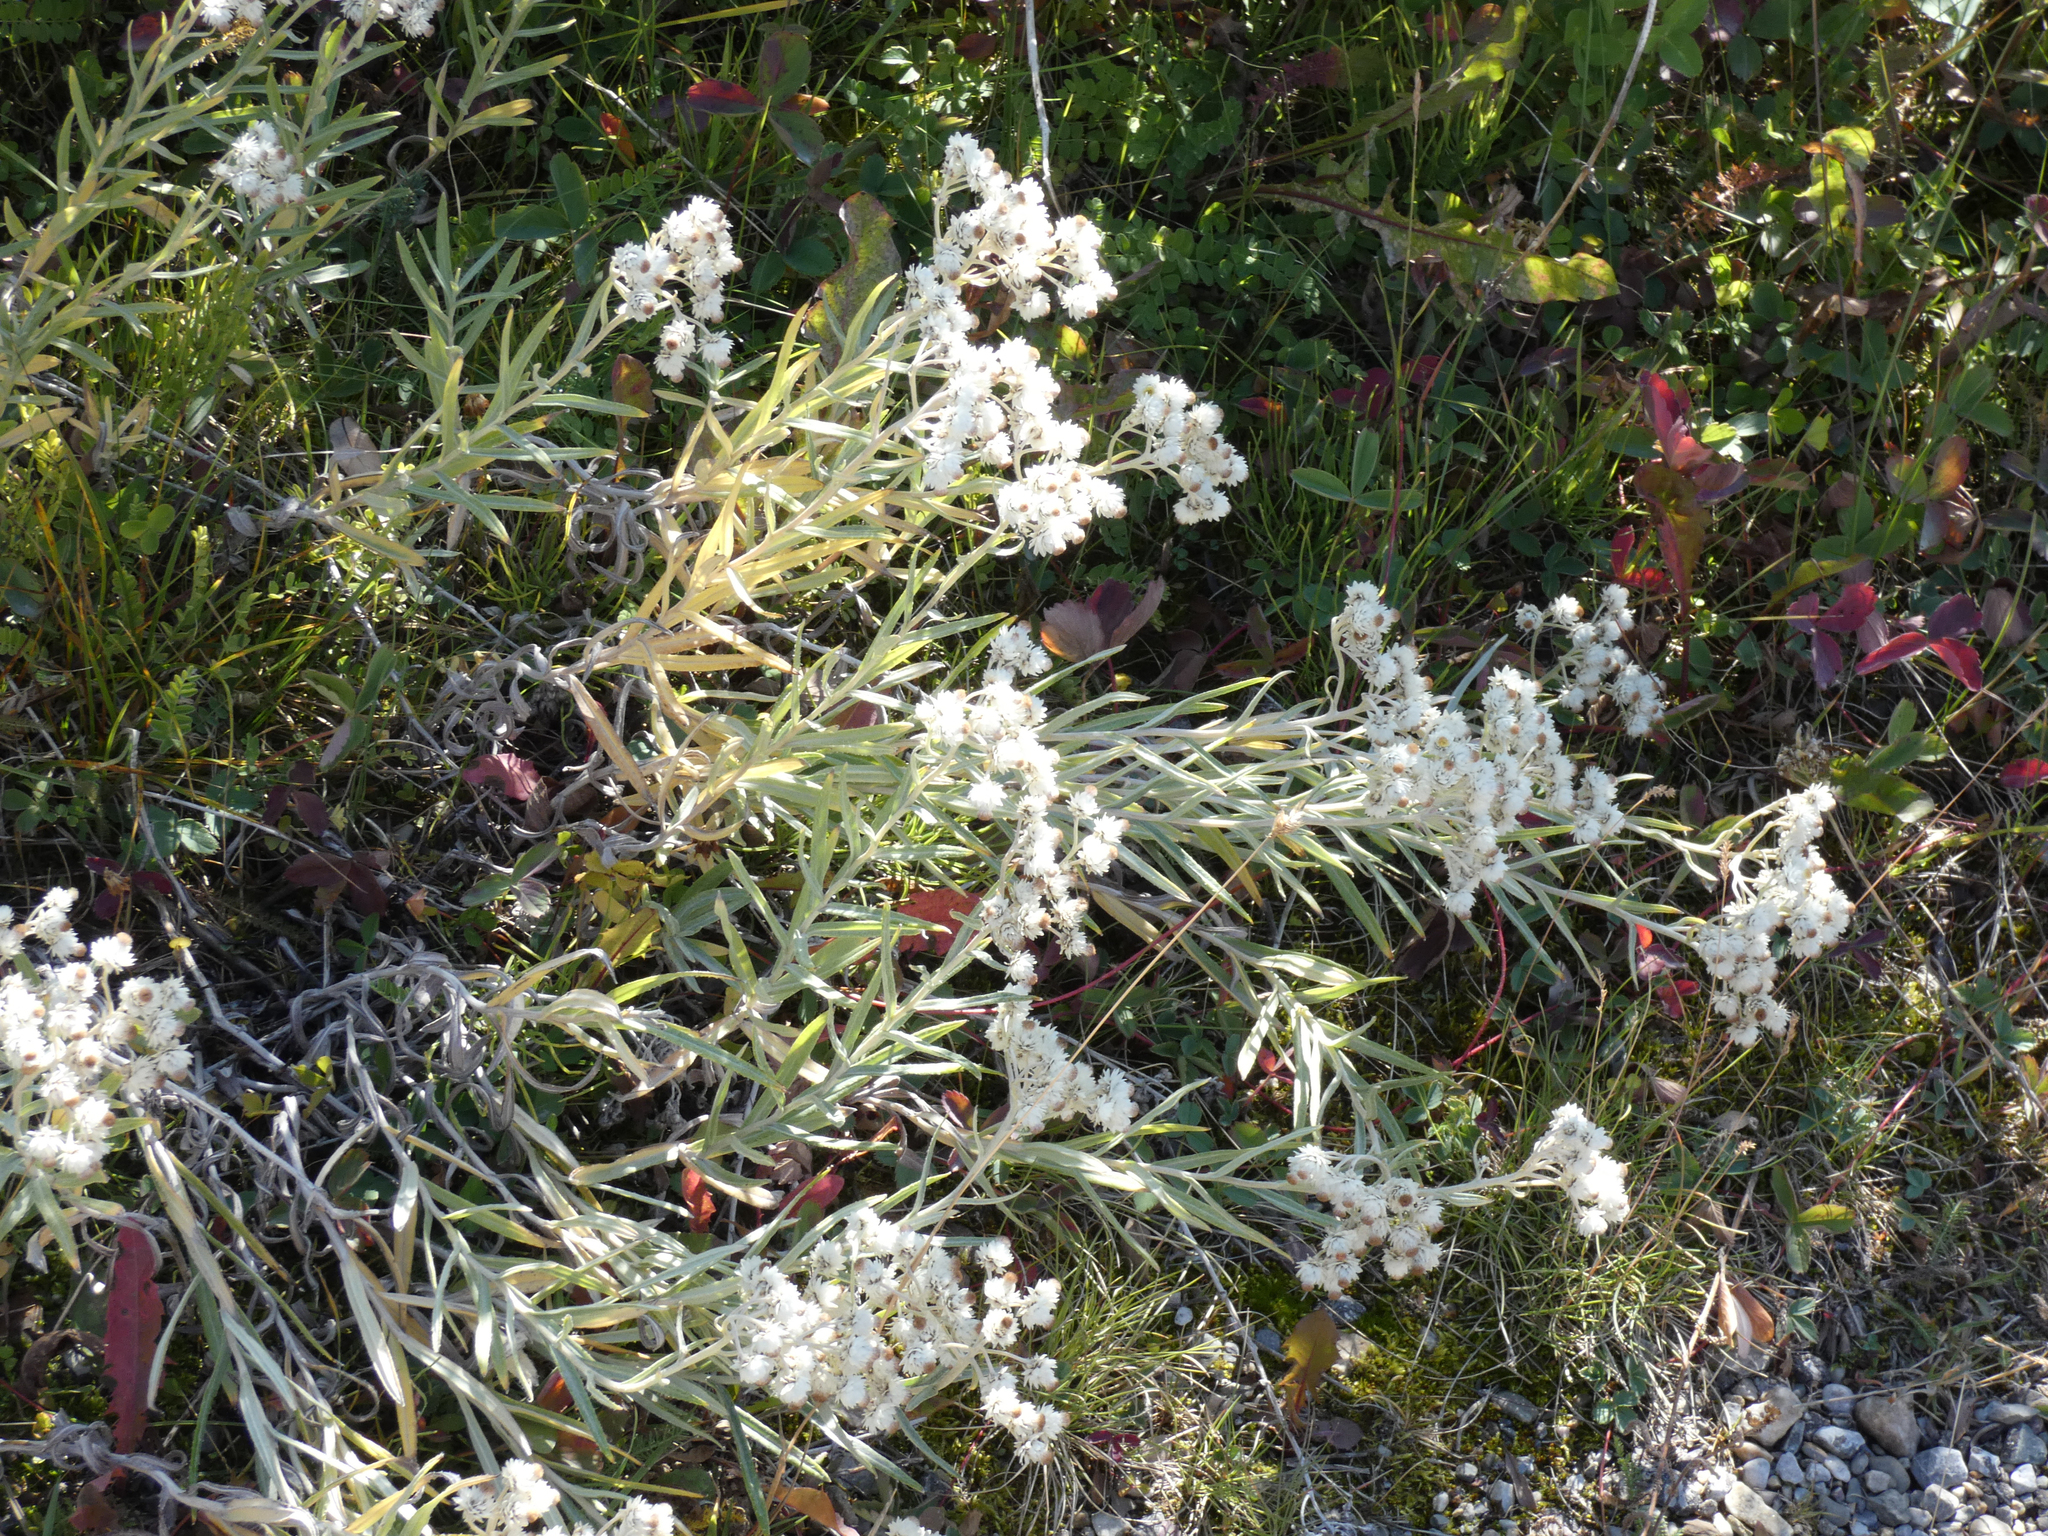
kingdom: Plantae
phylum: Tracheophyta
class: Magnoliopsida
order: Asterales
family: Asteraceae
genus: Anaphalis
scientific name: Anaphalis margaritacea
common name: Pearly everlasting
